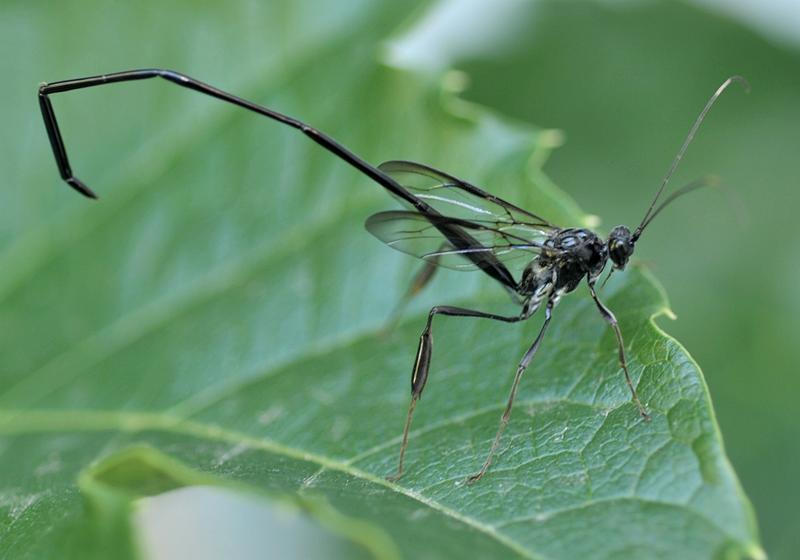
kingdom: Animalia
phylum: Arthropoda
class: Insecta
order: Hymenoptera
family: Pelecinidae
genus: Pelecinus
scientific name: Pelecinus polyturator
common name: American pelecinid wasp
